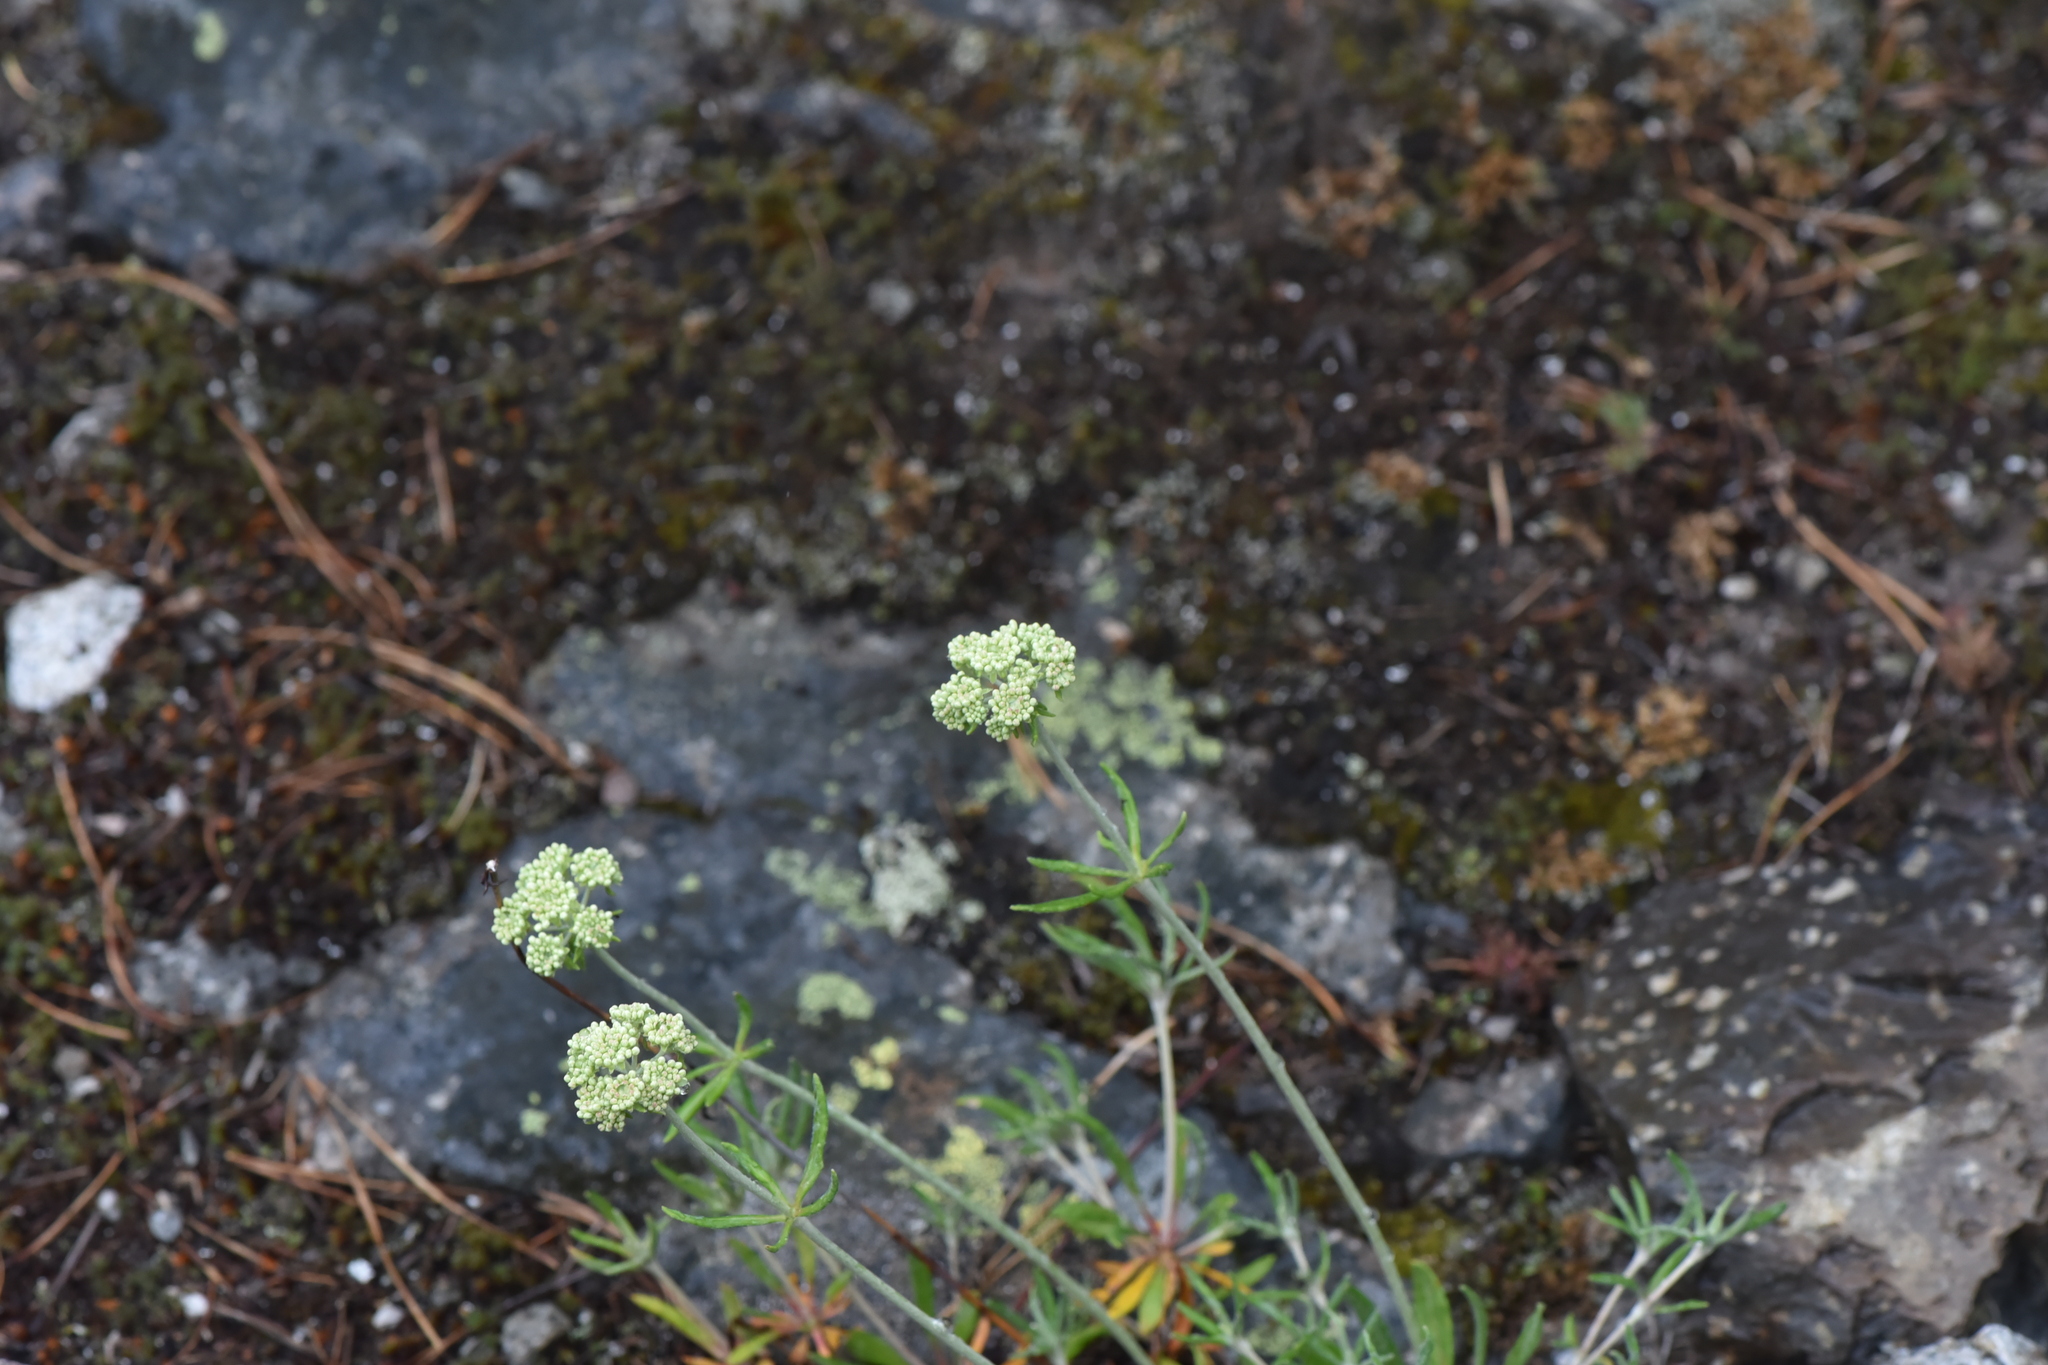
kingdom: Plantae
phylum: Tracheophyta
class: Magnoliopsida
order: Caryophyllales
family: Polygonaceae
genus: Eriogonum
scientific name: Eriogonum heracleoides
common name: Wyeth's buckwheat
